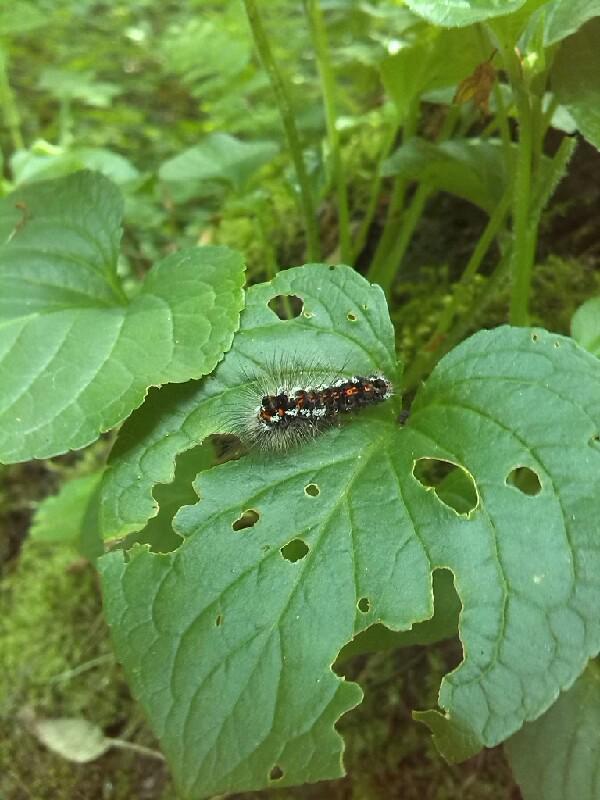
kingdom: Animalia
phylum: Arthropoda
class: Insecta
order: Lepidoptera
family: Erebidae
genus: Sphrageidus
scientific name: Sphrageidus similis
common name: Yellow-tail
